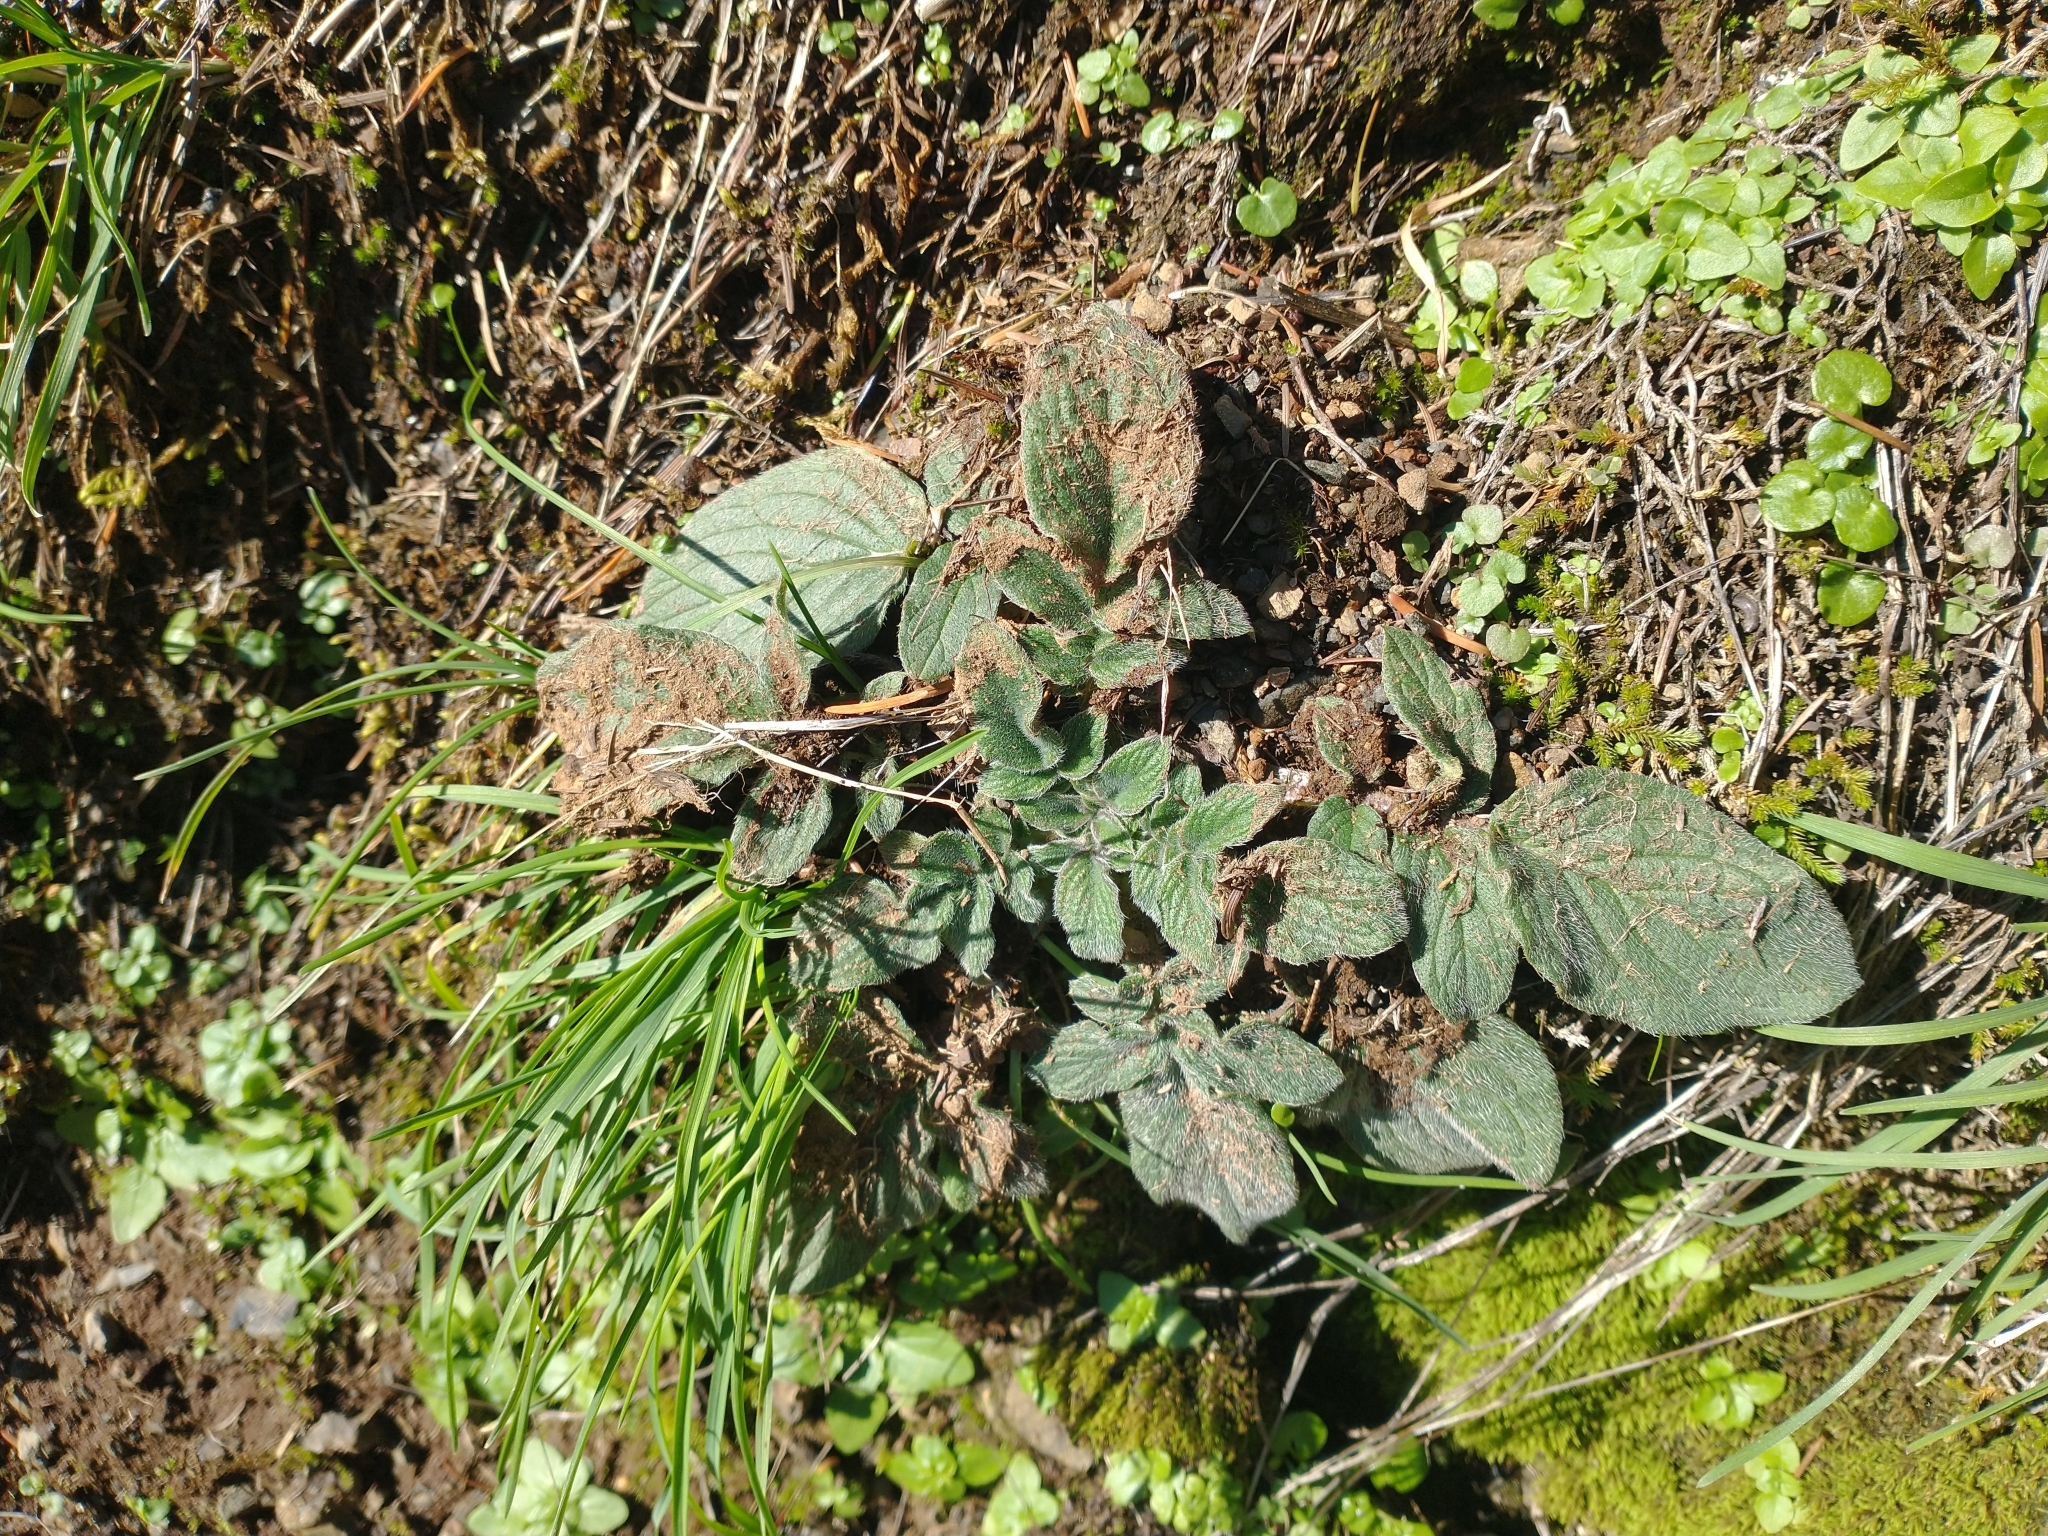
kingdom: Plantae
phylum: Tracheophyta
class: Magnoliopsida
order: Boraginales
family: Hydrophyllaceae
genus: Phacelia
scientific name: Phacelia nemoralis
